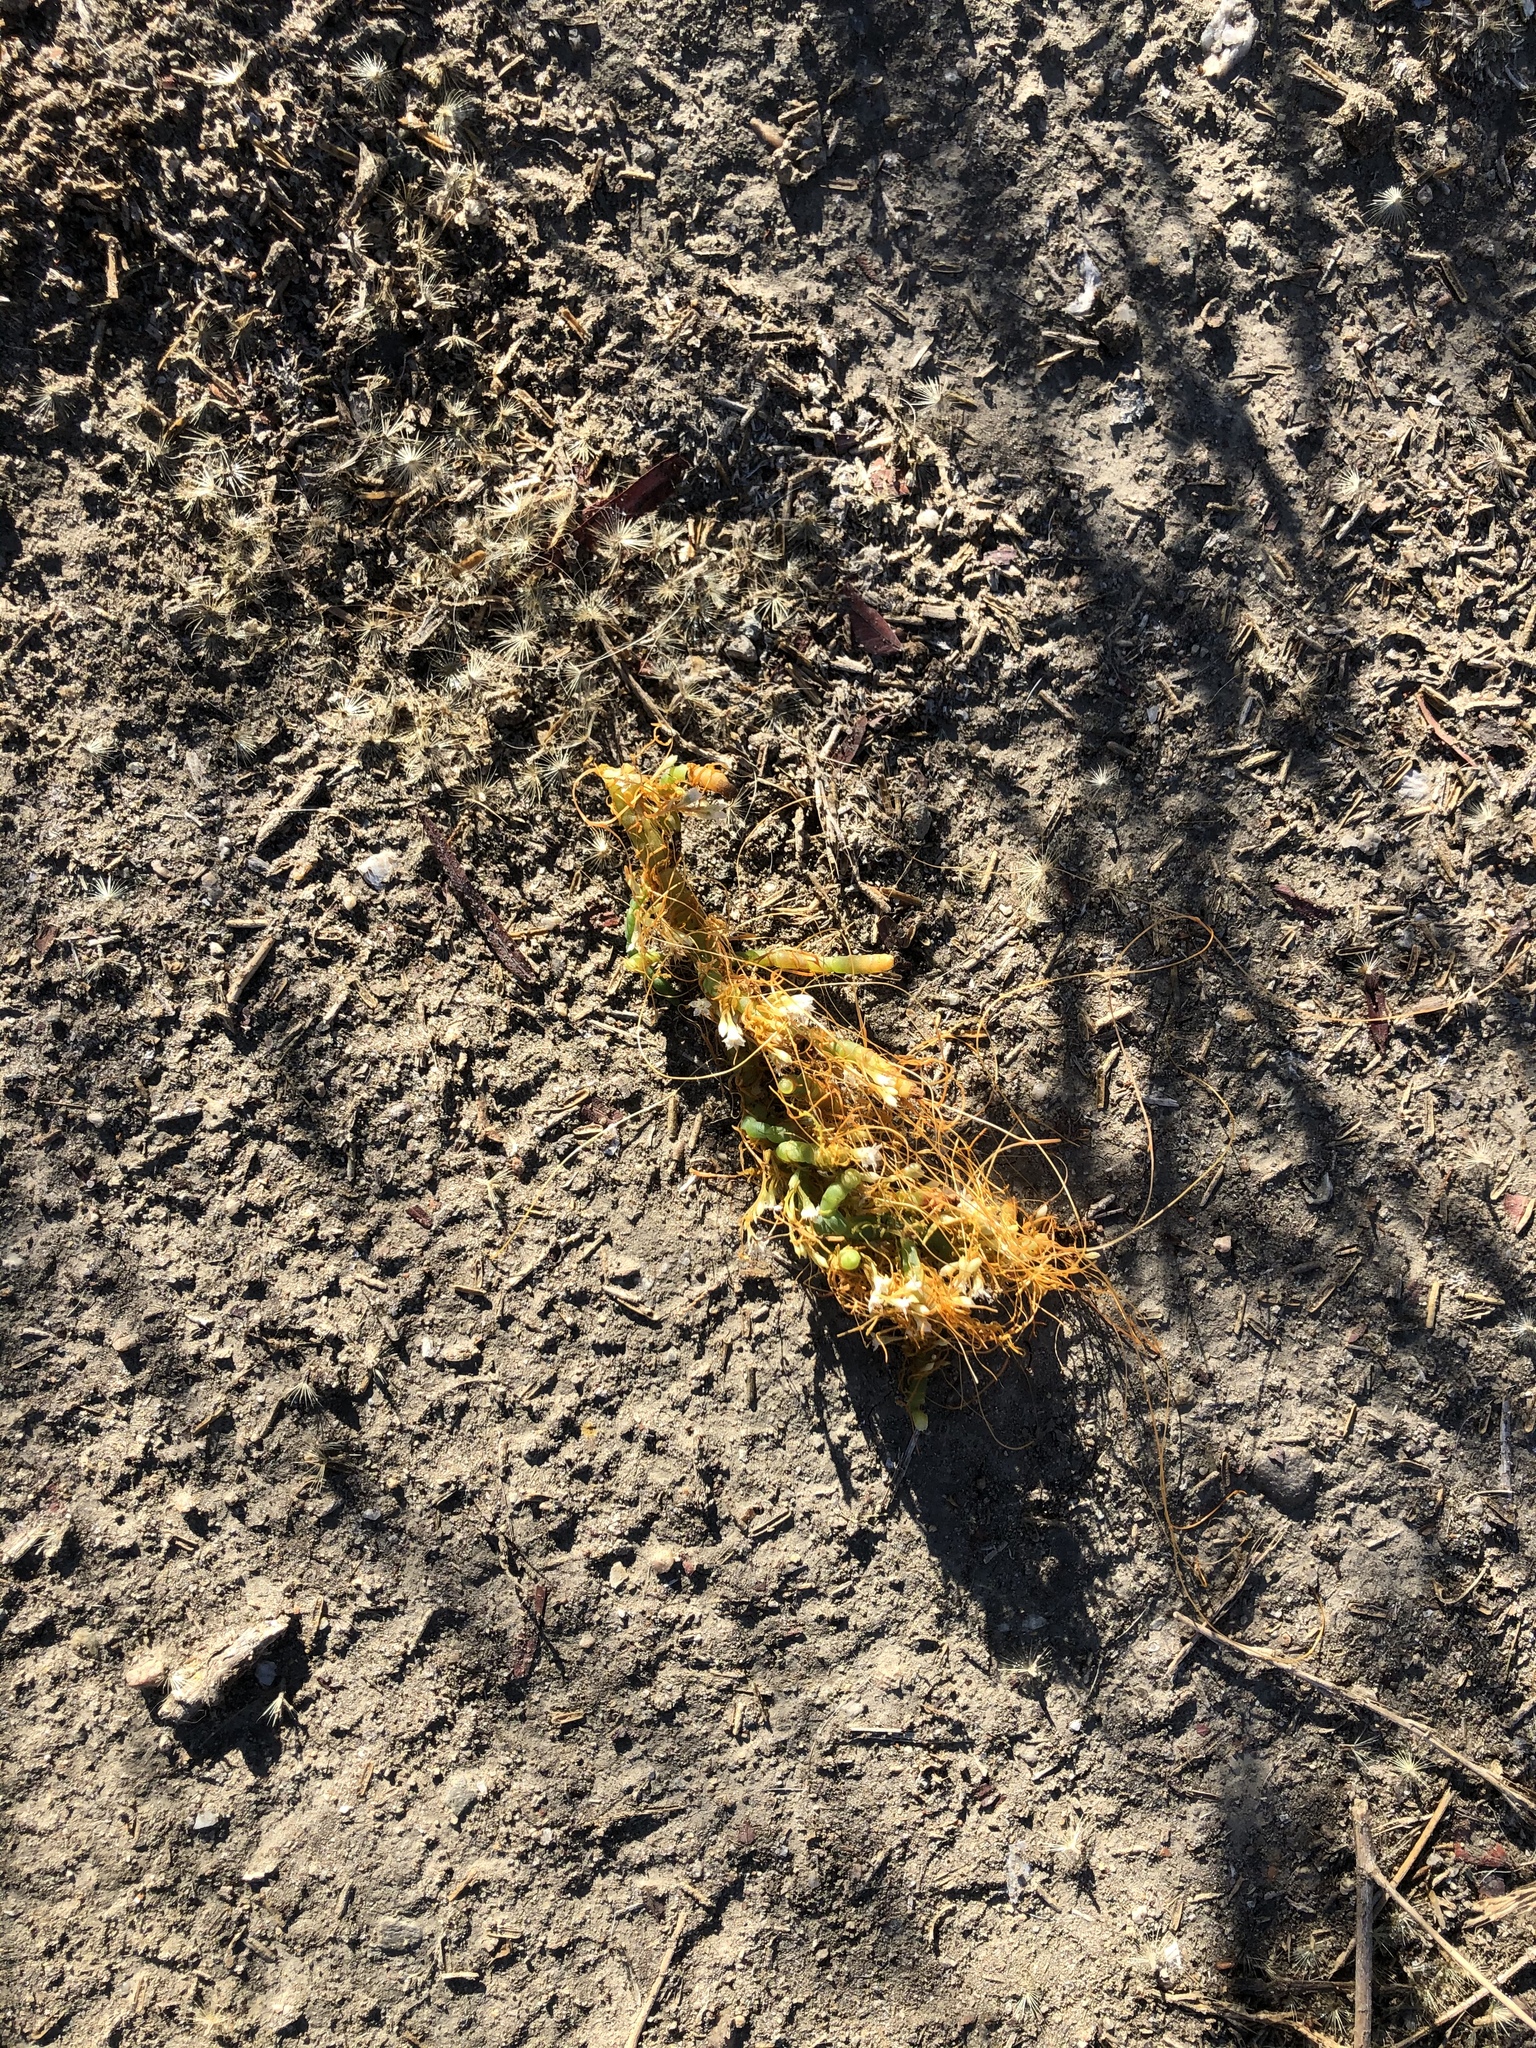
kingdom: Plantae
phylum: Tracheophyta
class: Magnoliopsida
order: Solanales
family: Convolvulaceae
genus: Cuscuta
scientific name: Cuscuta pacifica
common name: Large saltmarsh dodder
